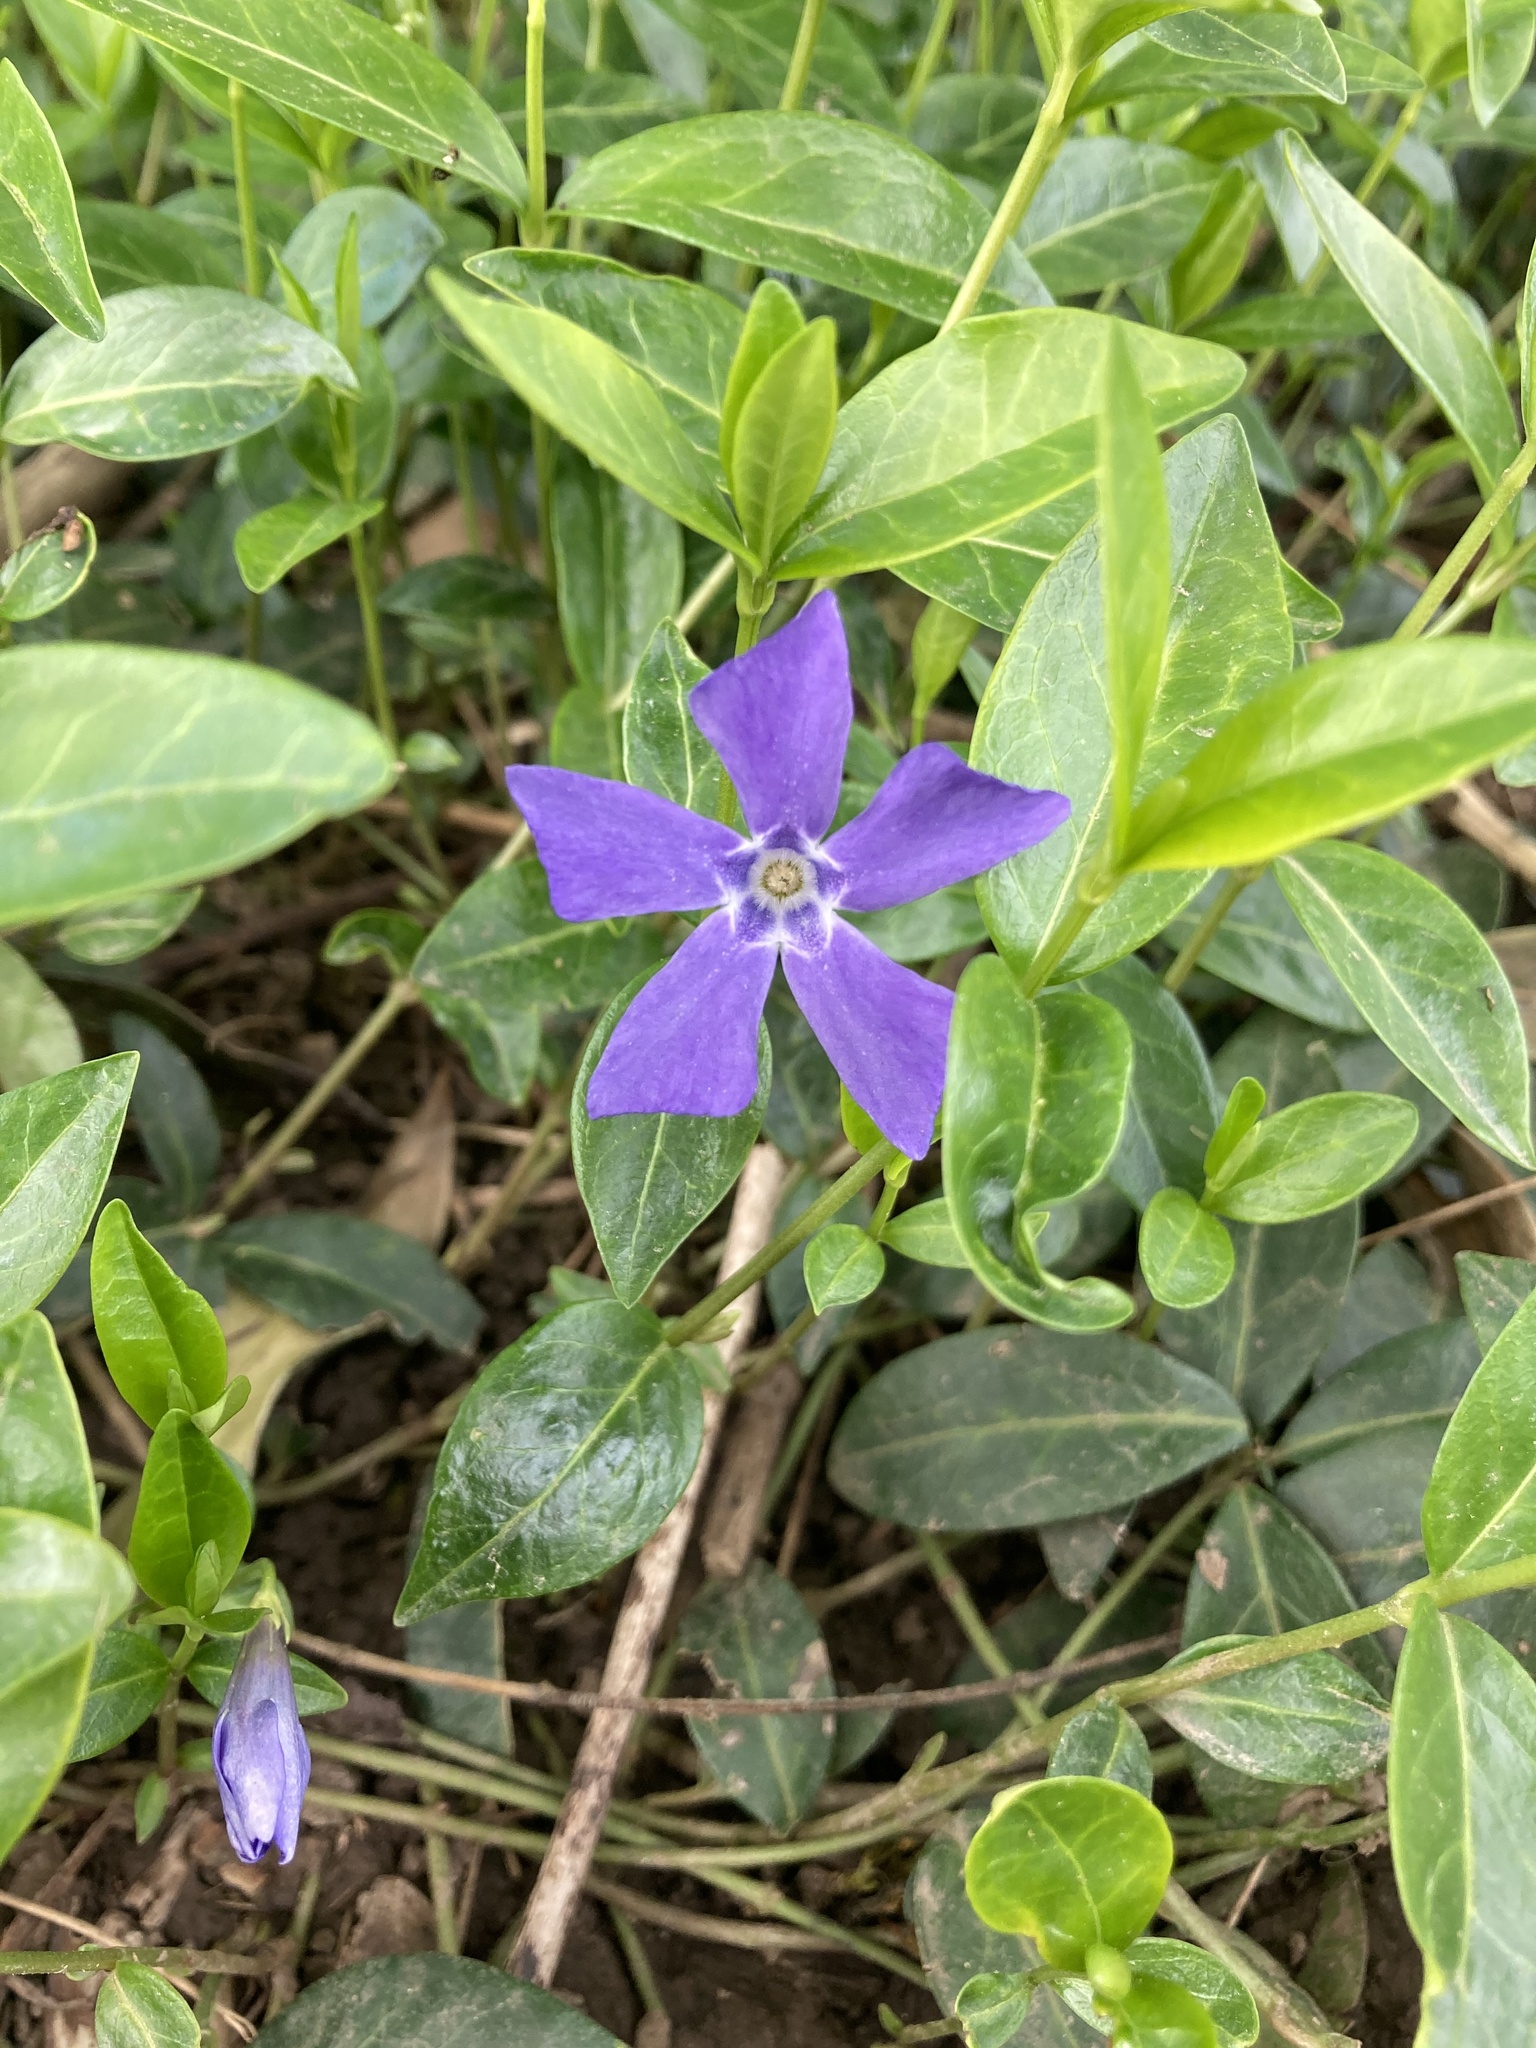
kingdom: Plantae
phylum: Tracheophyta
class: Magnoliopsida
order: Gentianales
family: Apocynaceae
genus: Vinca
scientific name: Vinca minor
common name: Lesser periwinkle
